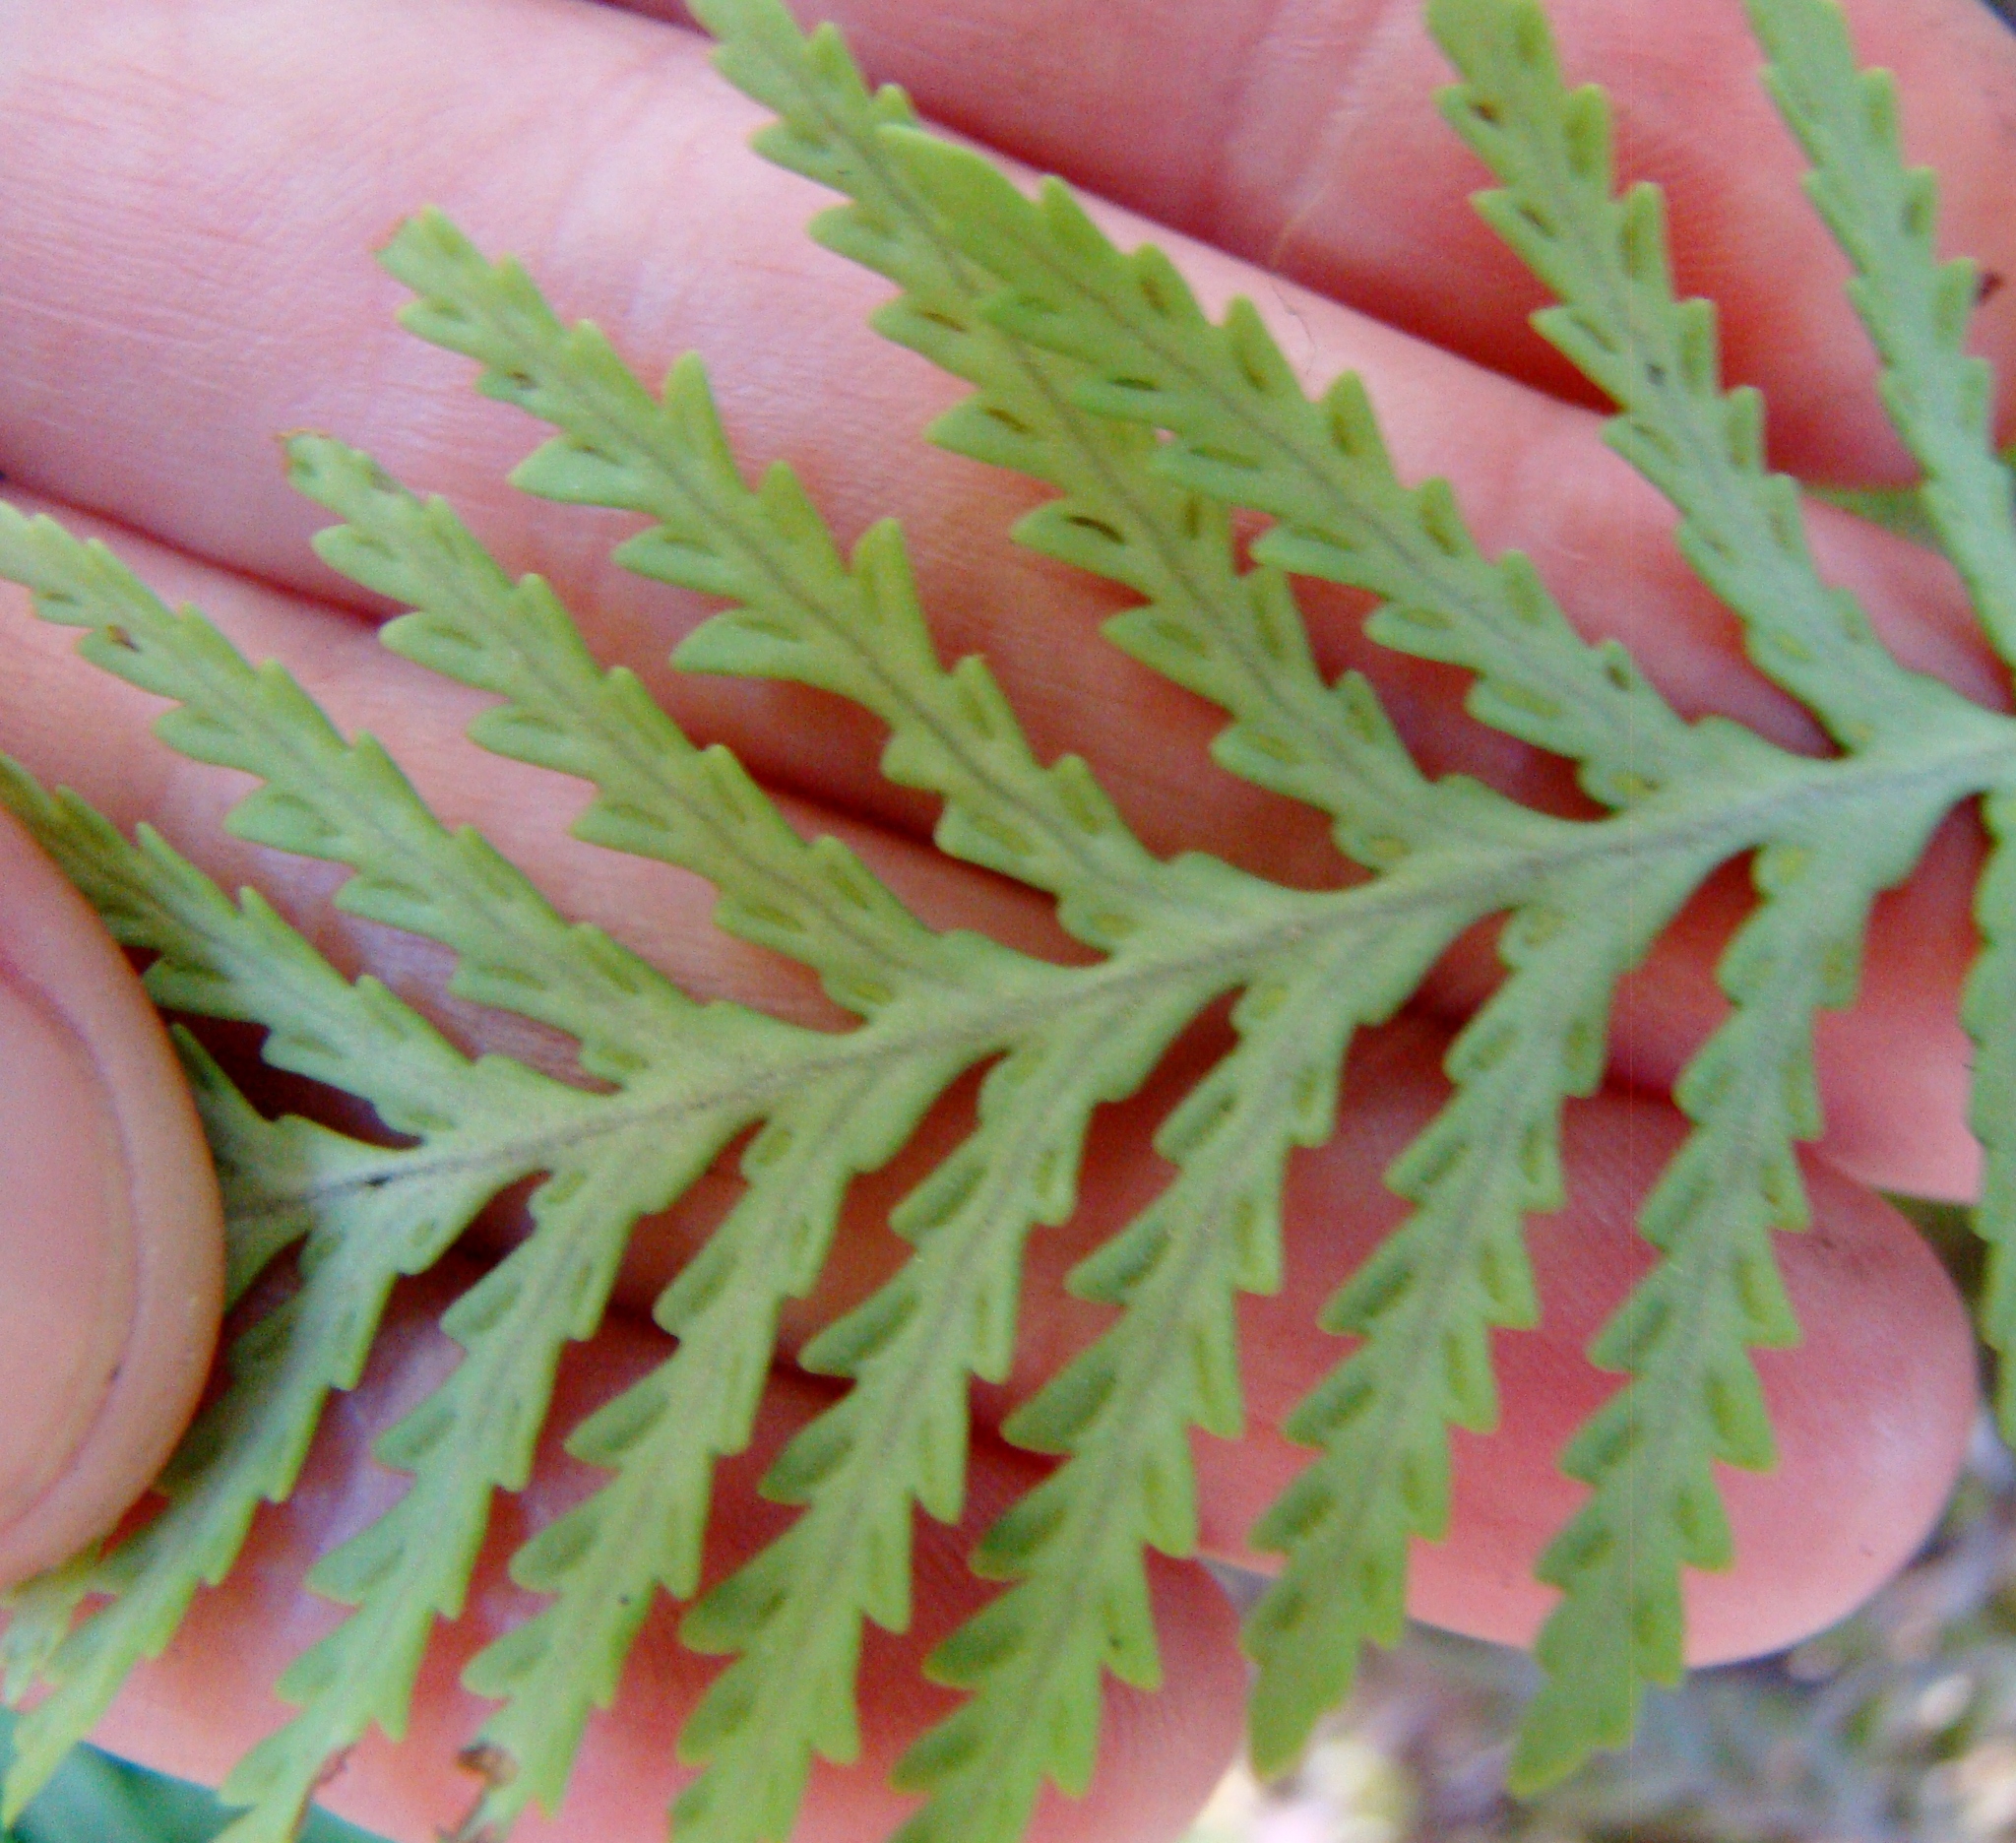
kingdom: Plantae
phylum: Tracheophyta
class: Polypodiopsida
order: Polypodiales
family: Polypodiaceae
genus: Notogrammitis
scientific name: Notogrammitis heterophylla
